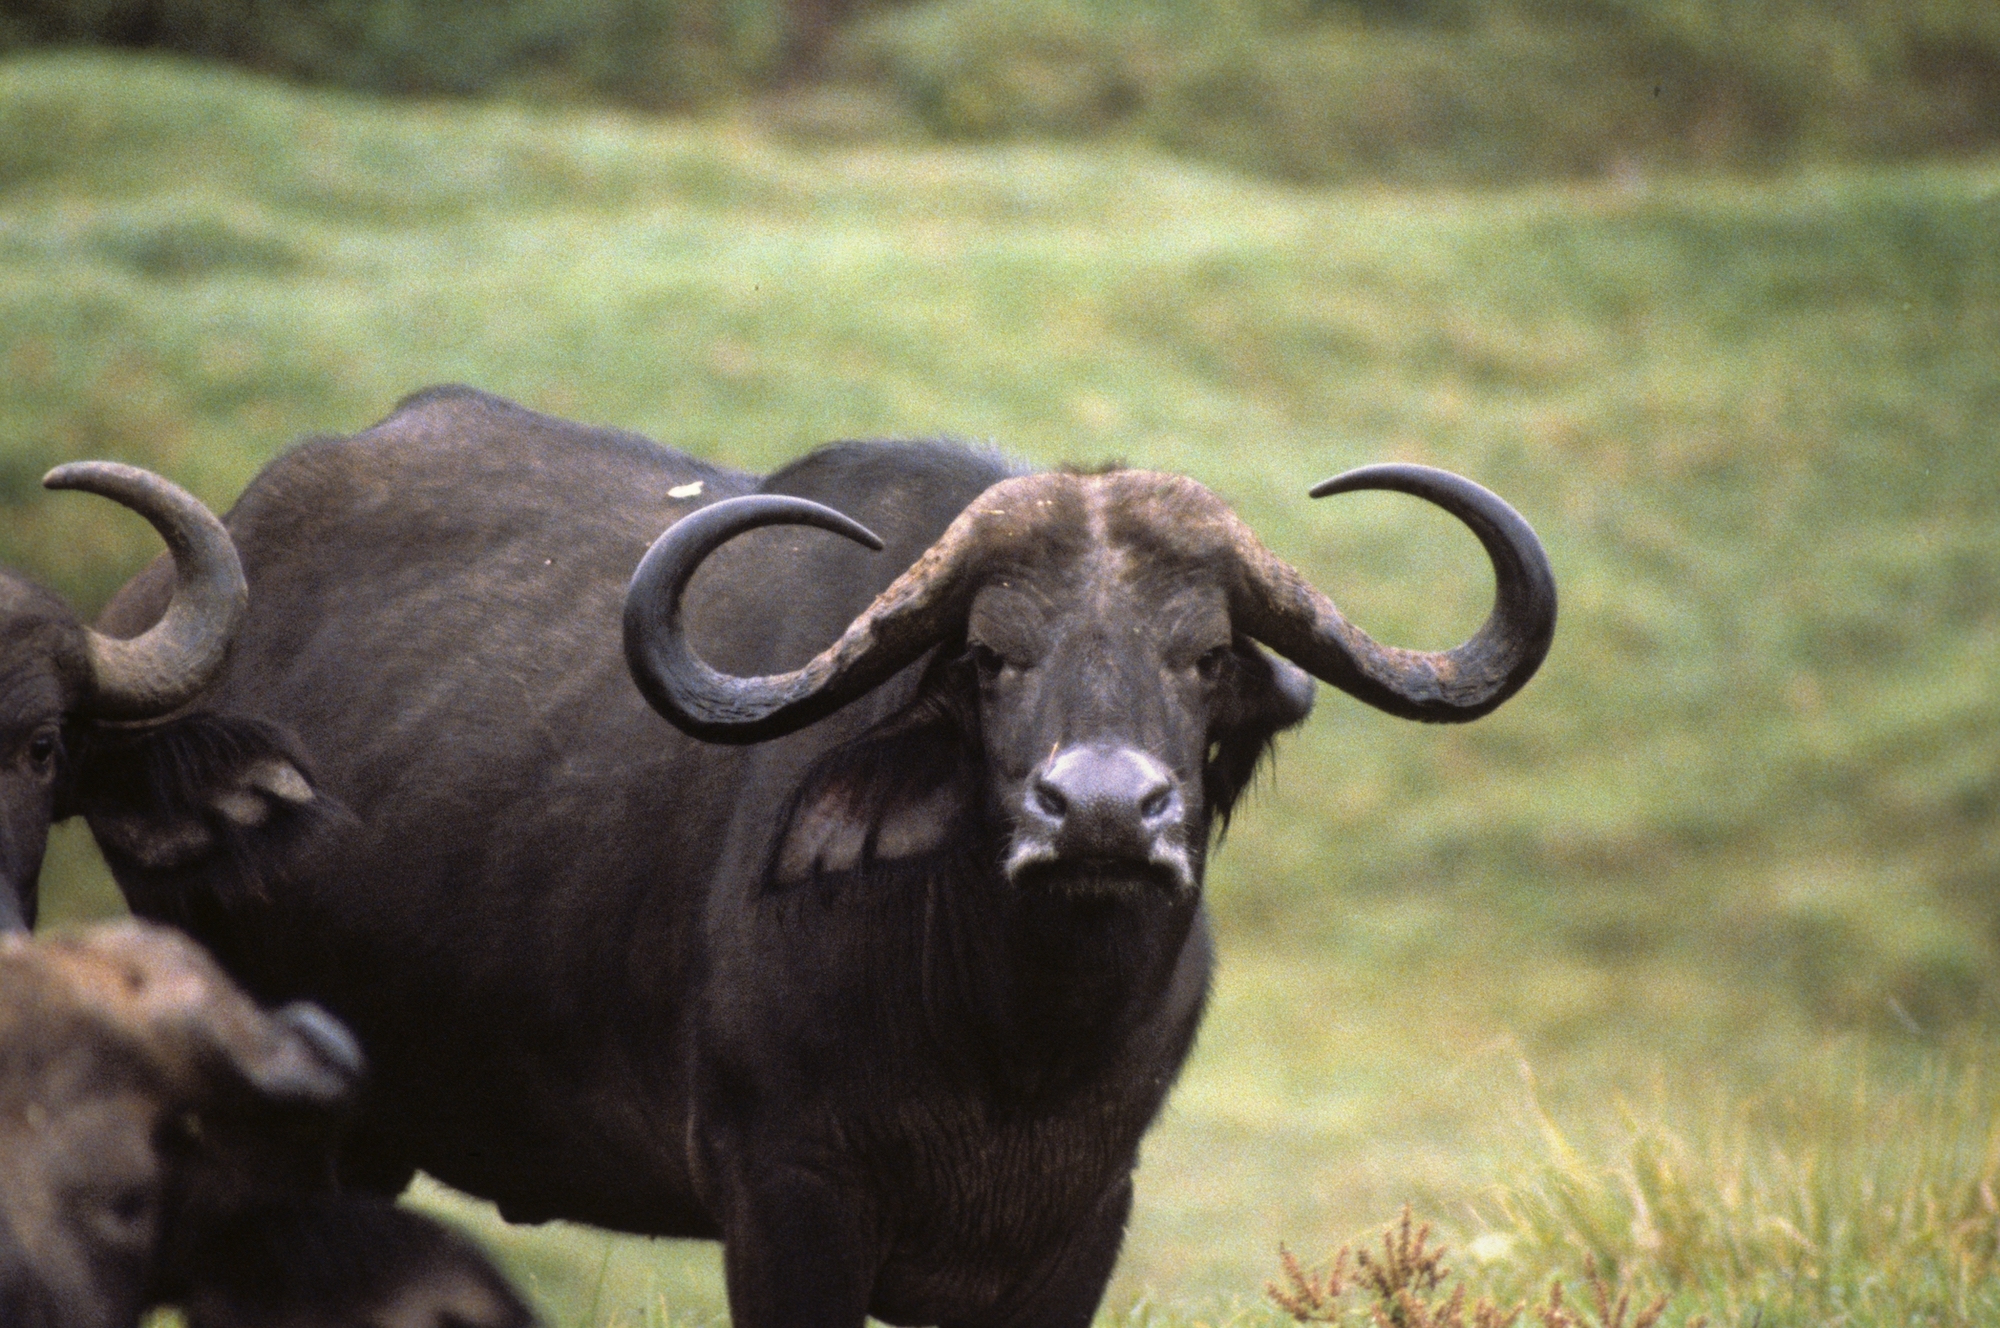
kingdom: Animalia
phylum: Chordata
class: Mammalia
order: Artiodactyla
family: Bovidae
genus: Syncerus
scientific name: Syncerus caffer
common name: African buffalo
